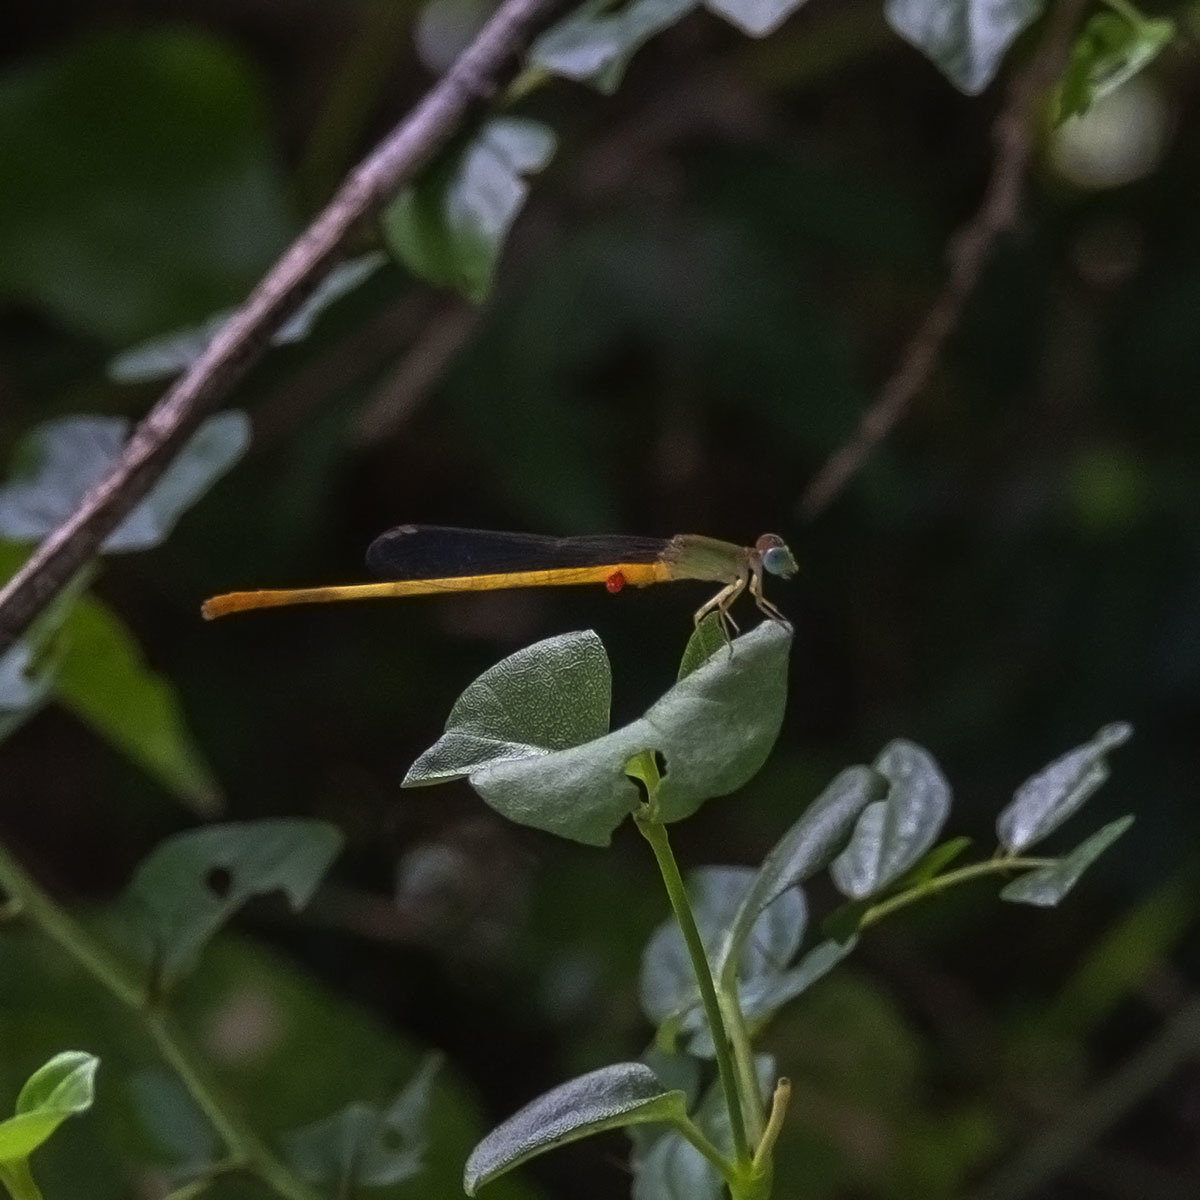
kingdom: Animalia
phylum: Arthropoda
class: Insecta
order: Odonata
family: Coenagrionidae
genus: Ceriagrion
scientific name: Ceriagrion coromandelianum
